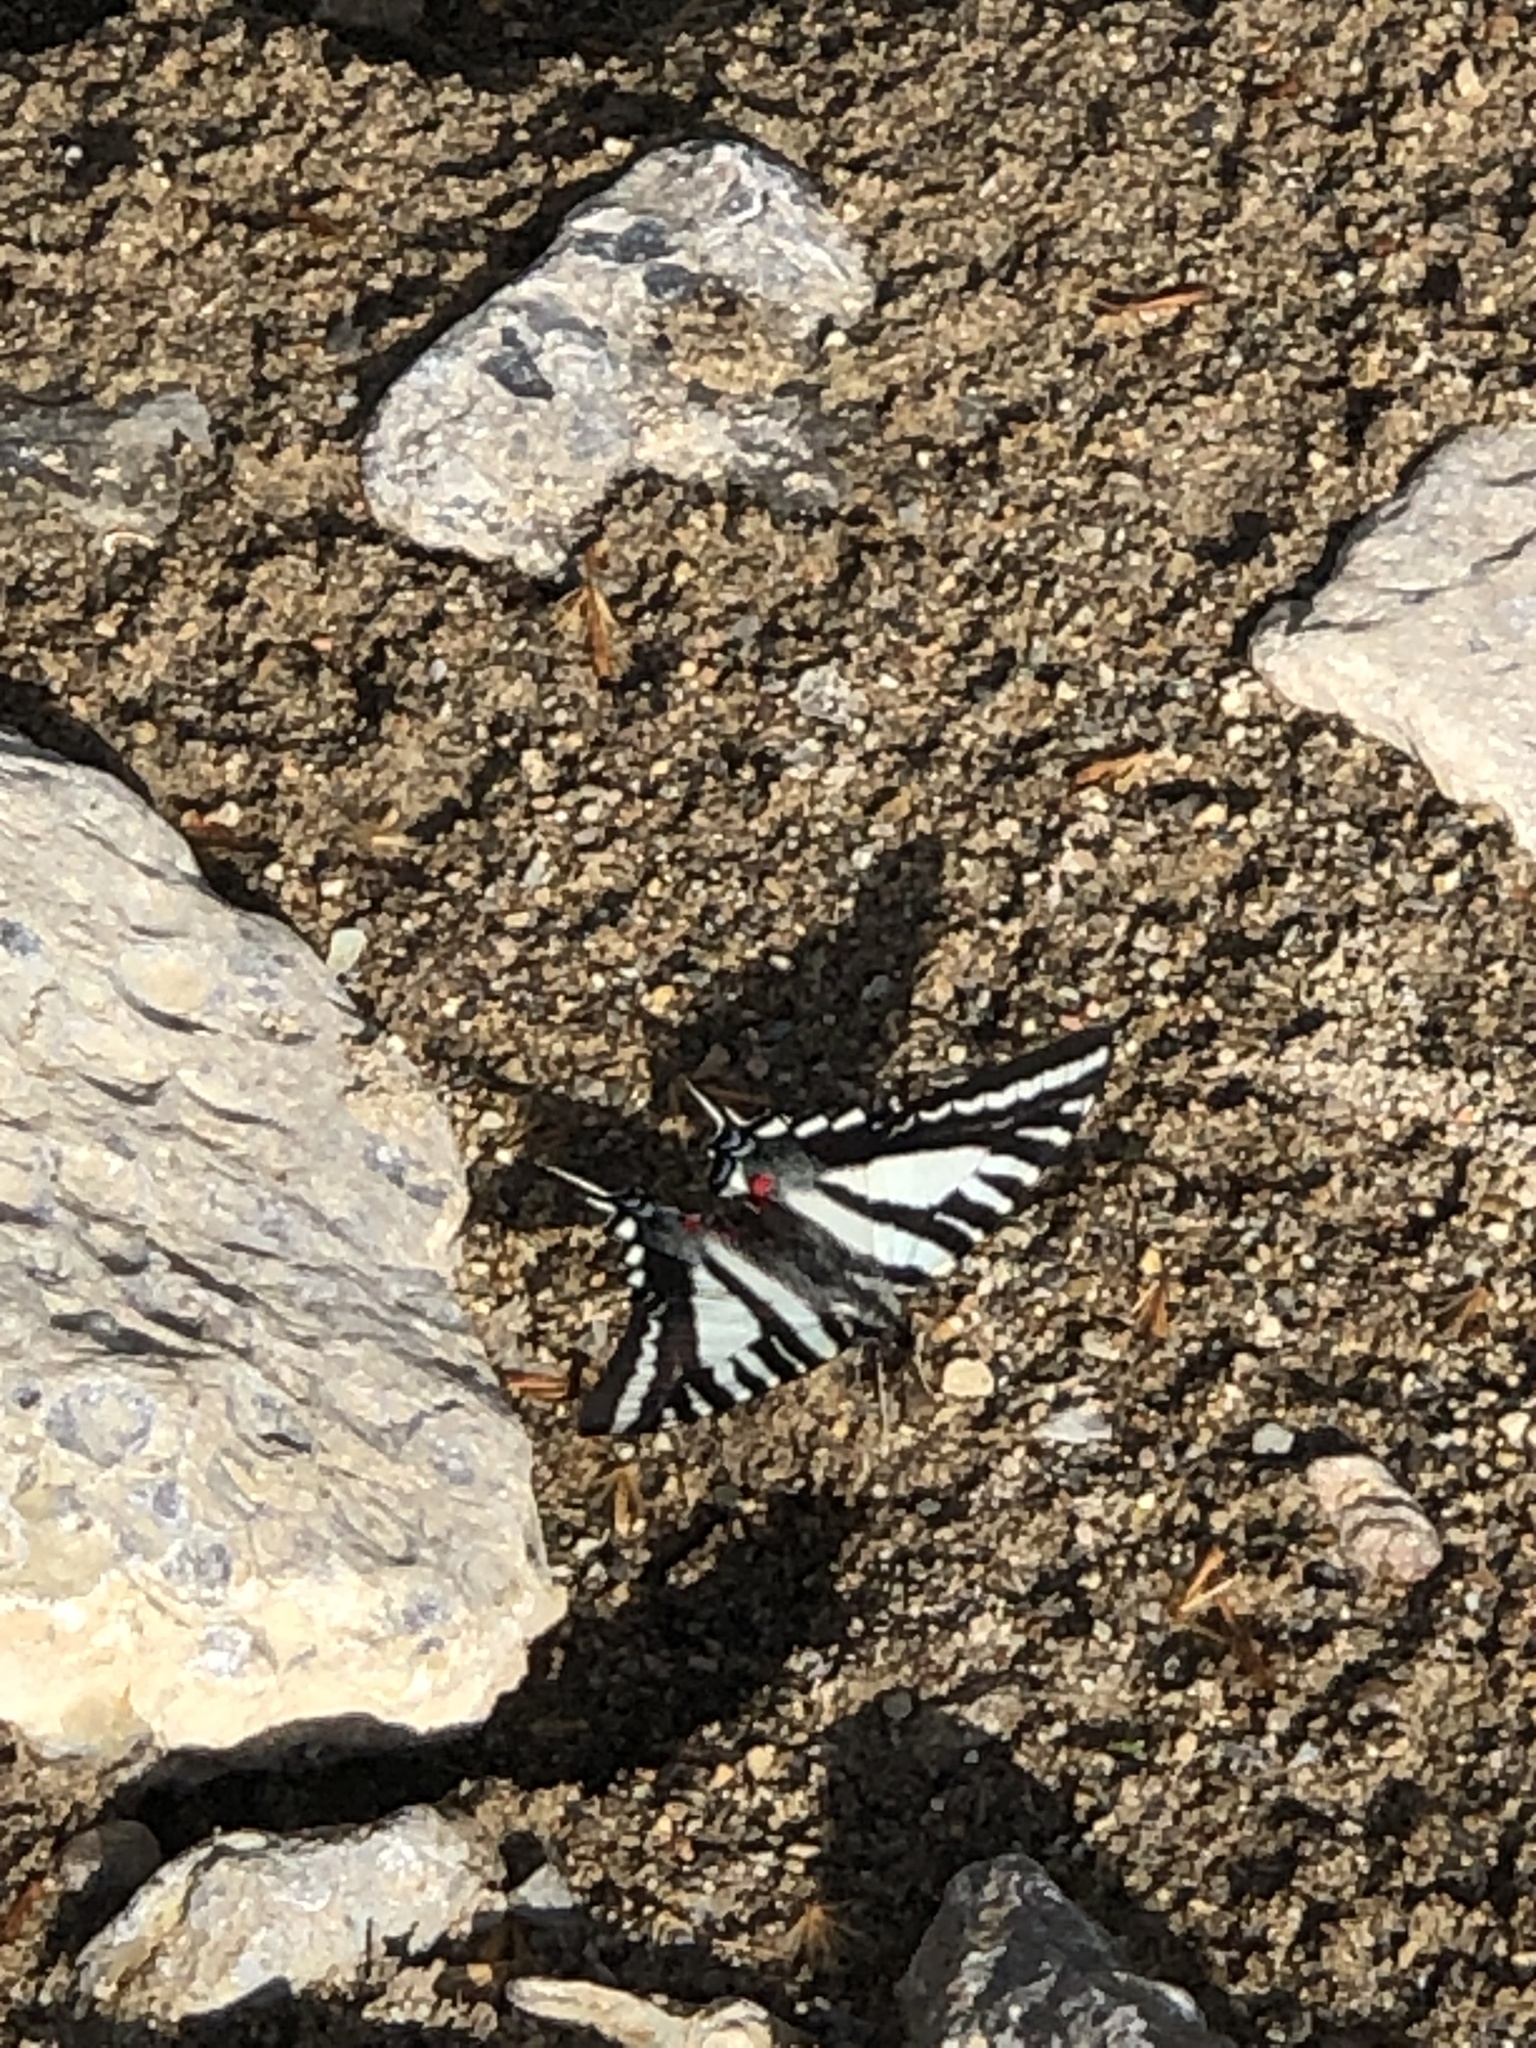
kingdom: Animalia
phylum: Arthropoda
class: Insecta
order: Lepidoptera
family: Papilionidae
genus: Protographium
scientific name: Protographium marcellus
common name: Zebra swallowtail
